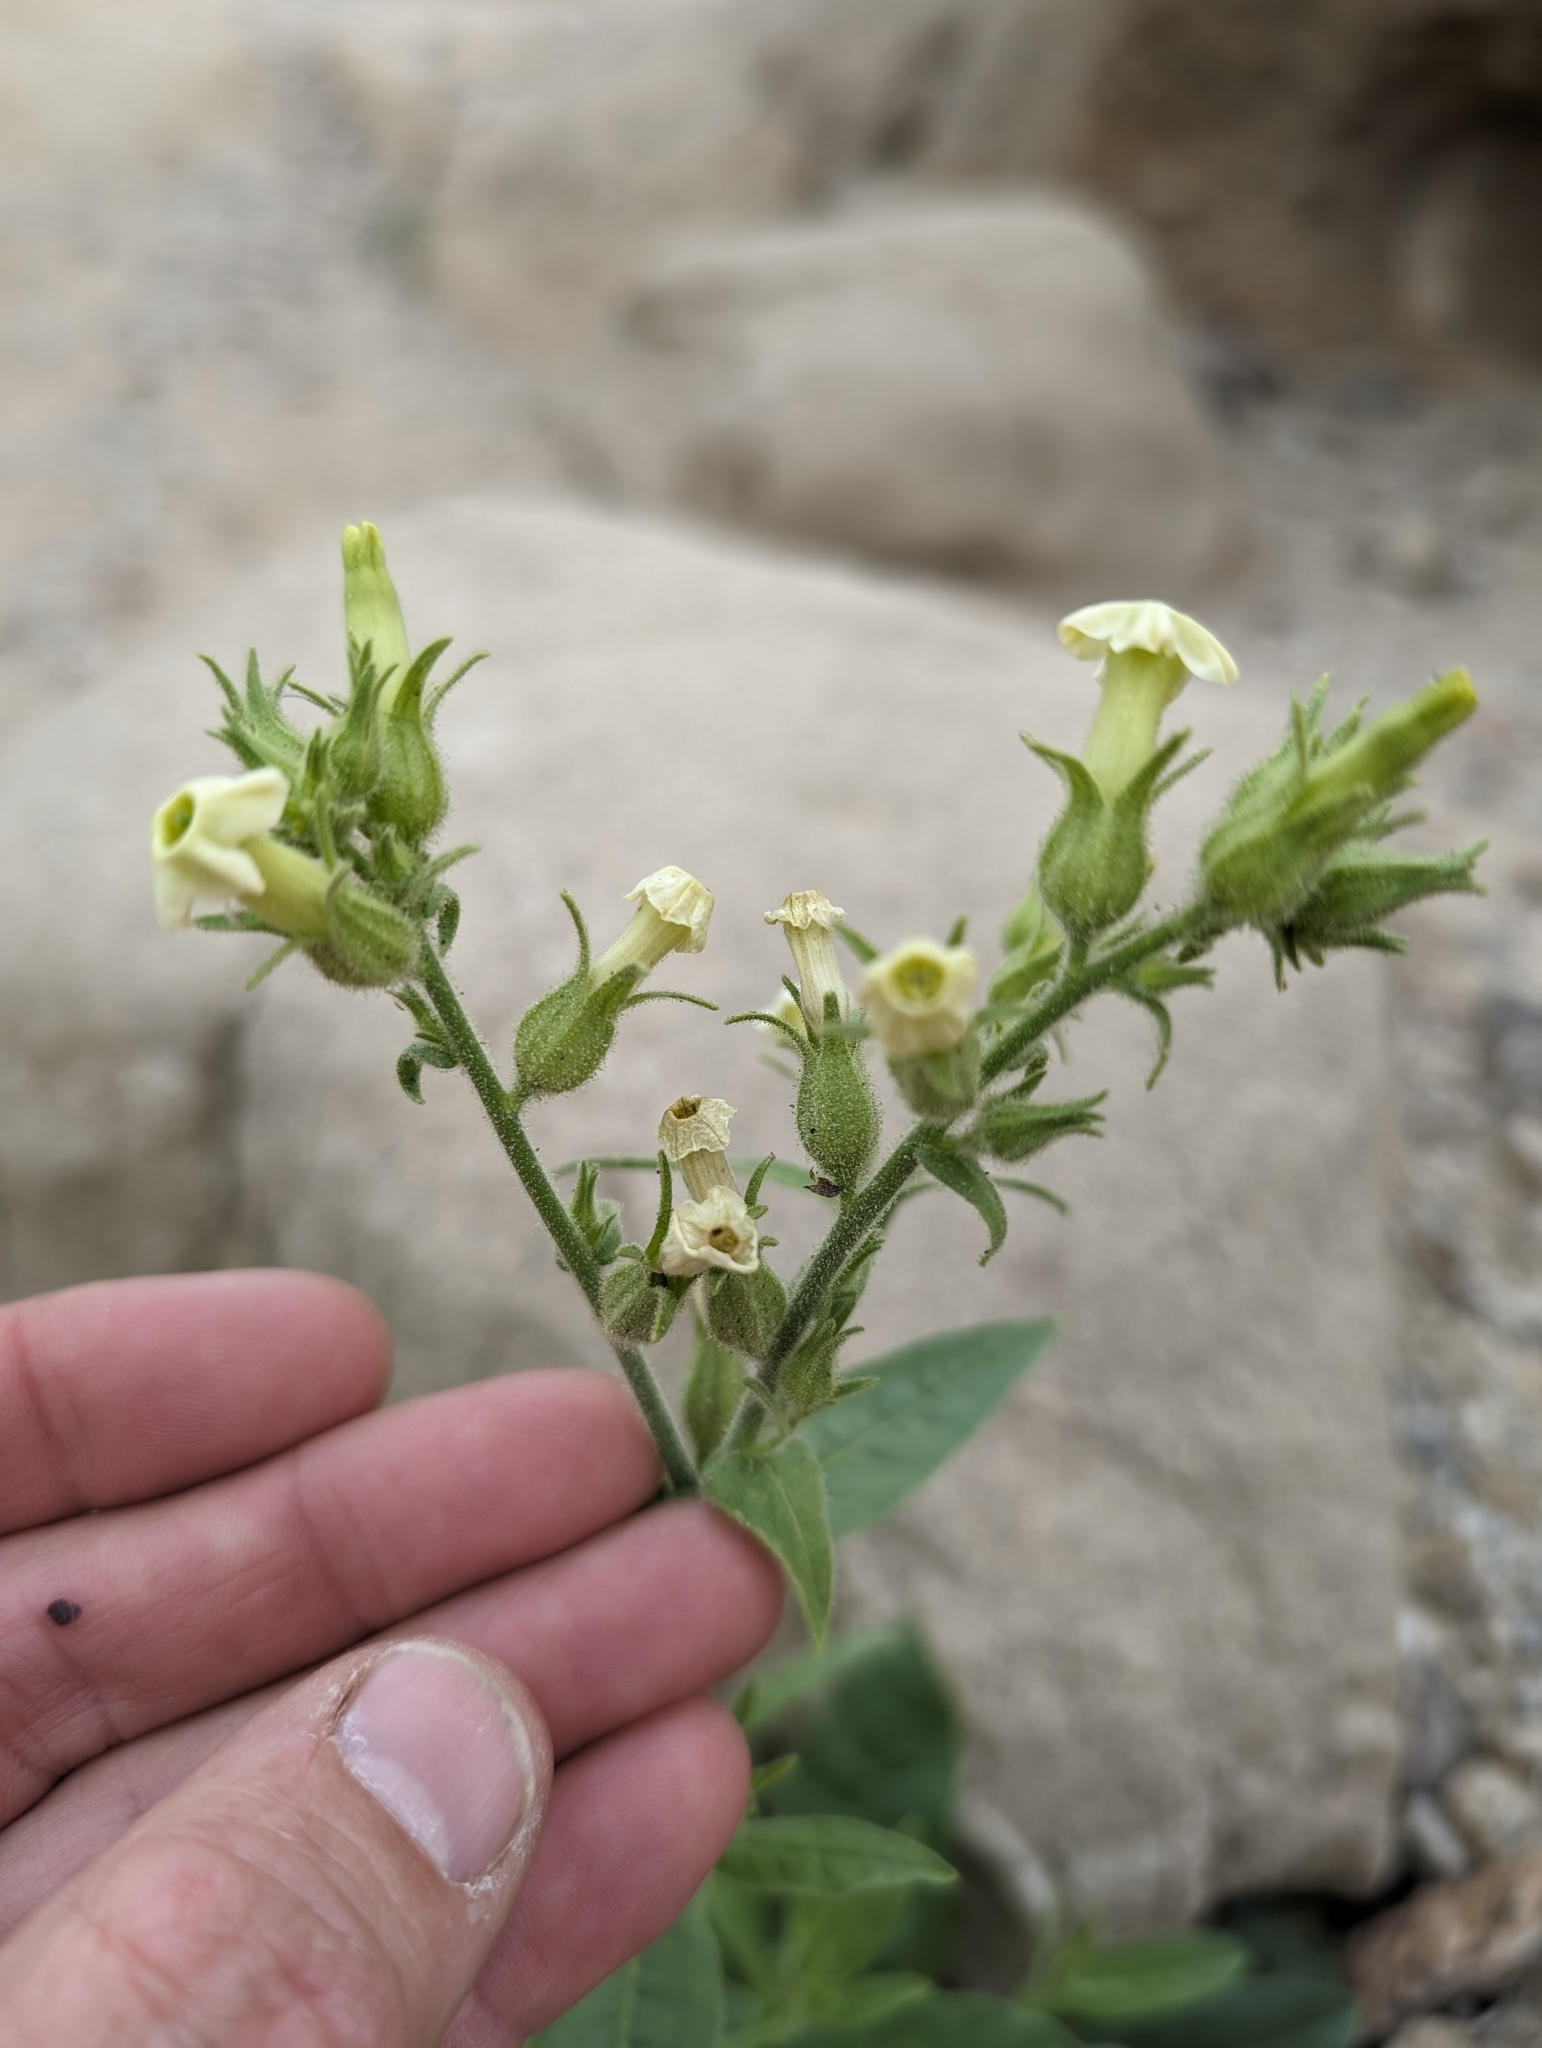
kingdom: Plantae
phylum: Tracheophyta
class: Magnoliopsida
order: Solanales
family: Solanaceae
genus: Nicotiana
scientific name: Nicotiana obtusifolia
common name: Desert tobacco
